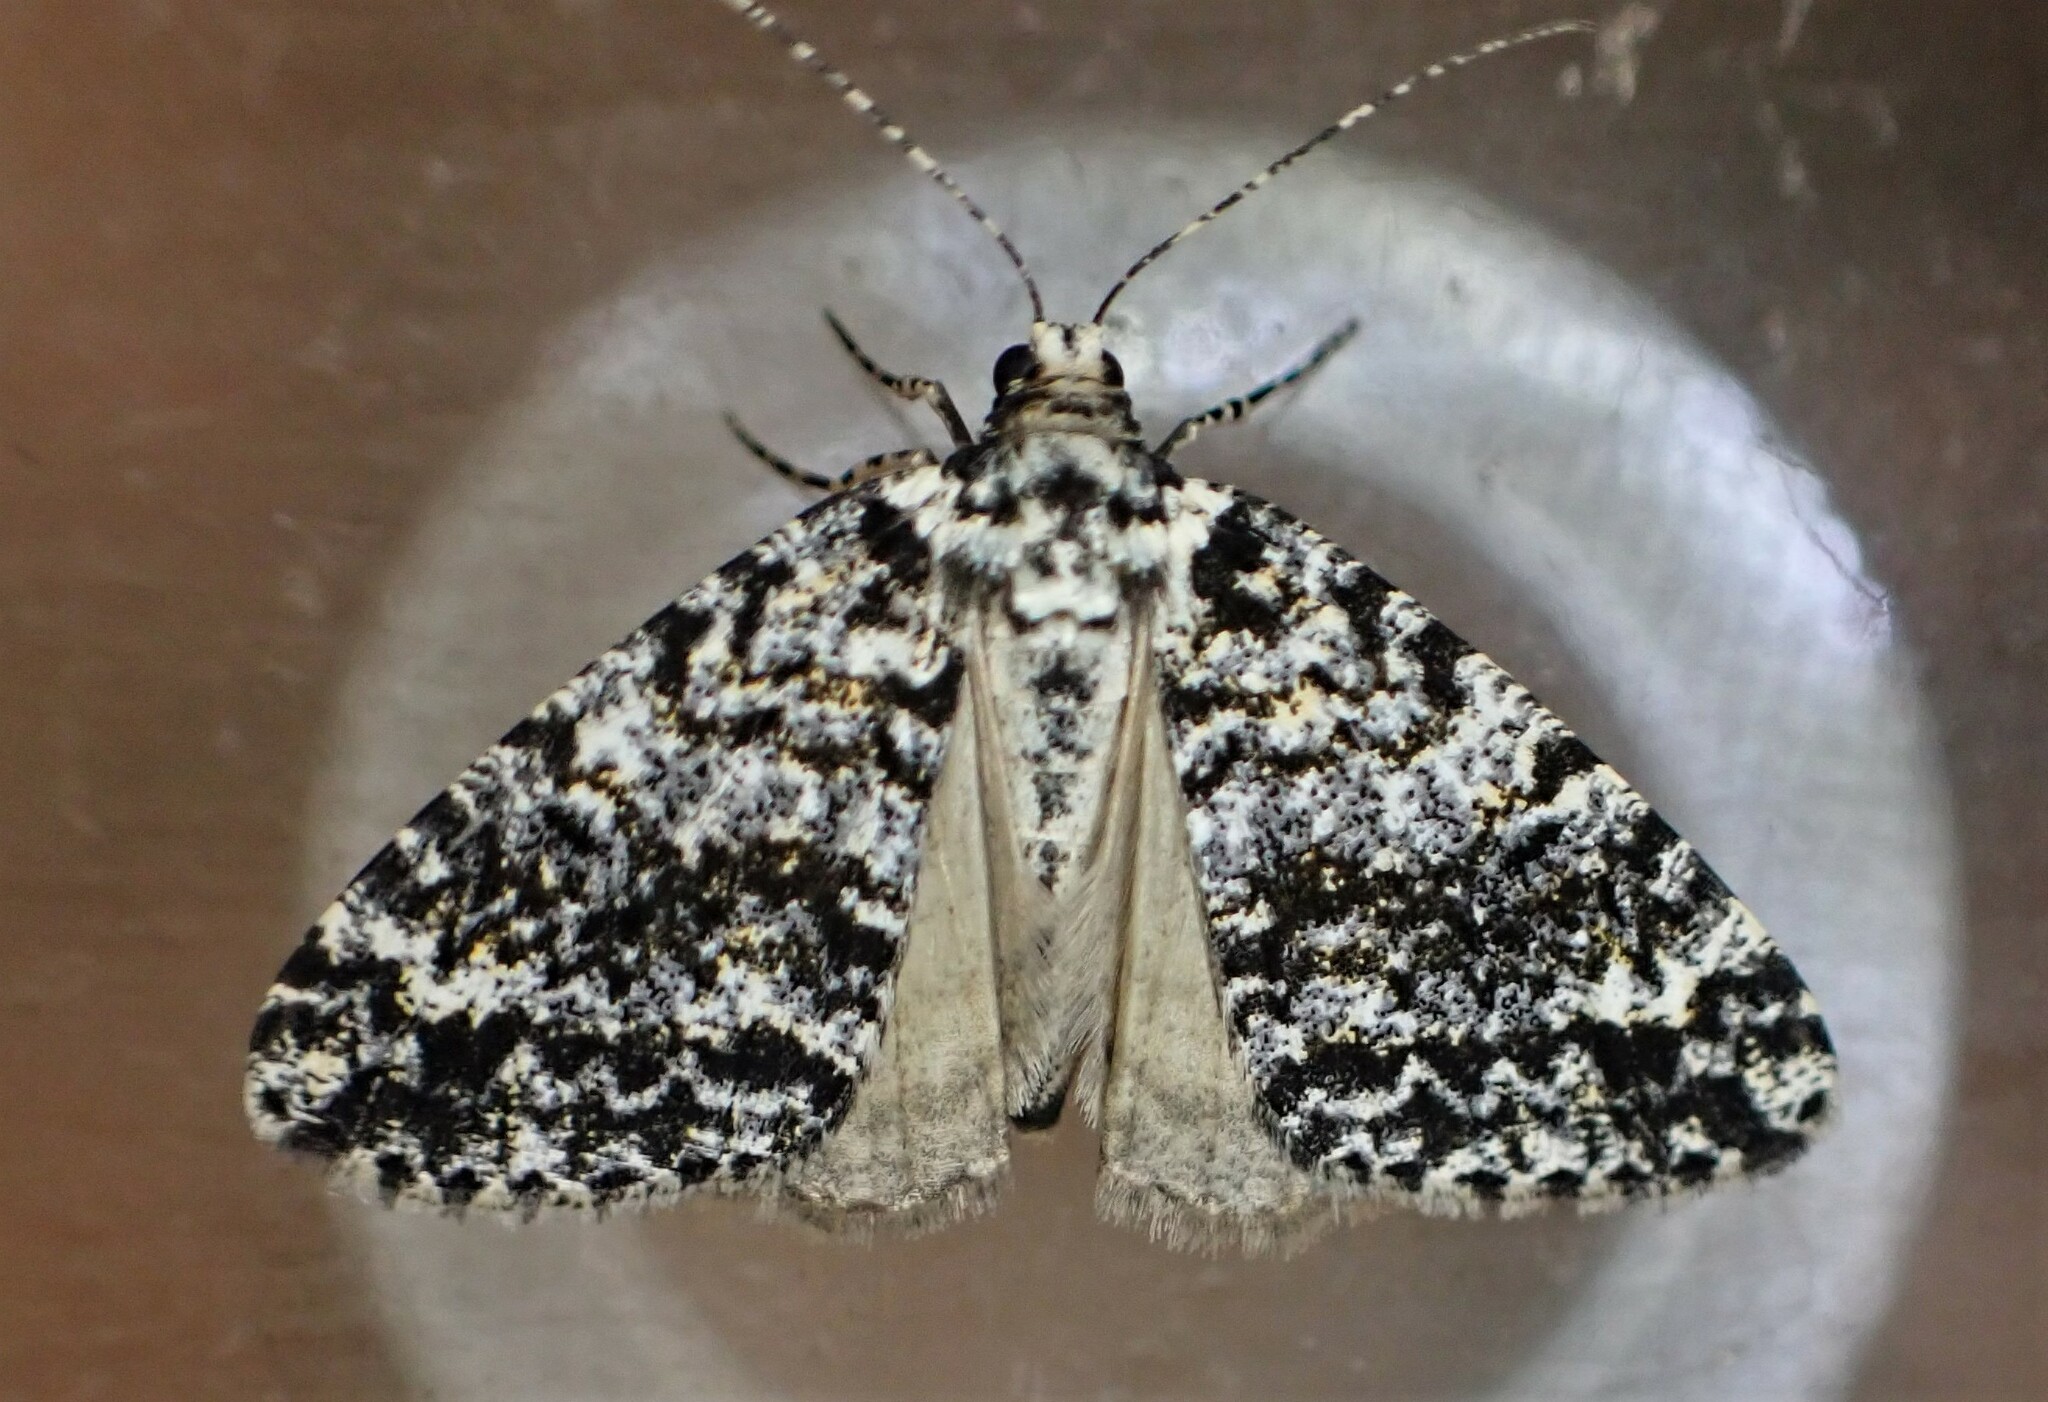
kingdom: Animalia
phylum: Arthropoda
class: Insecta
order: Lepidoptera
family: Geometridae
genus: Pseudocoremia
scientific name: Pseudocoremia monacha
